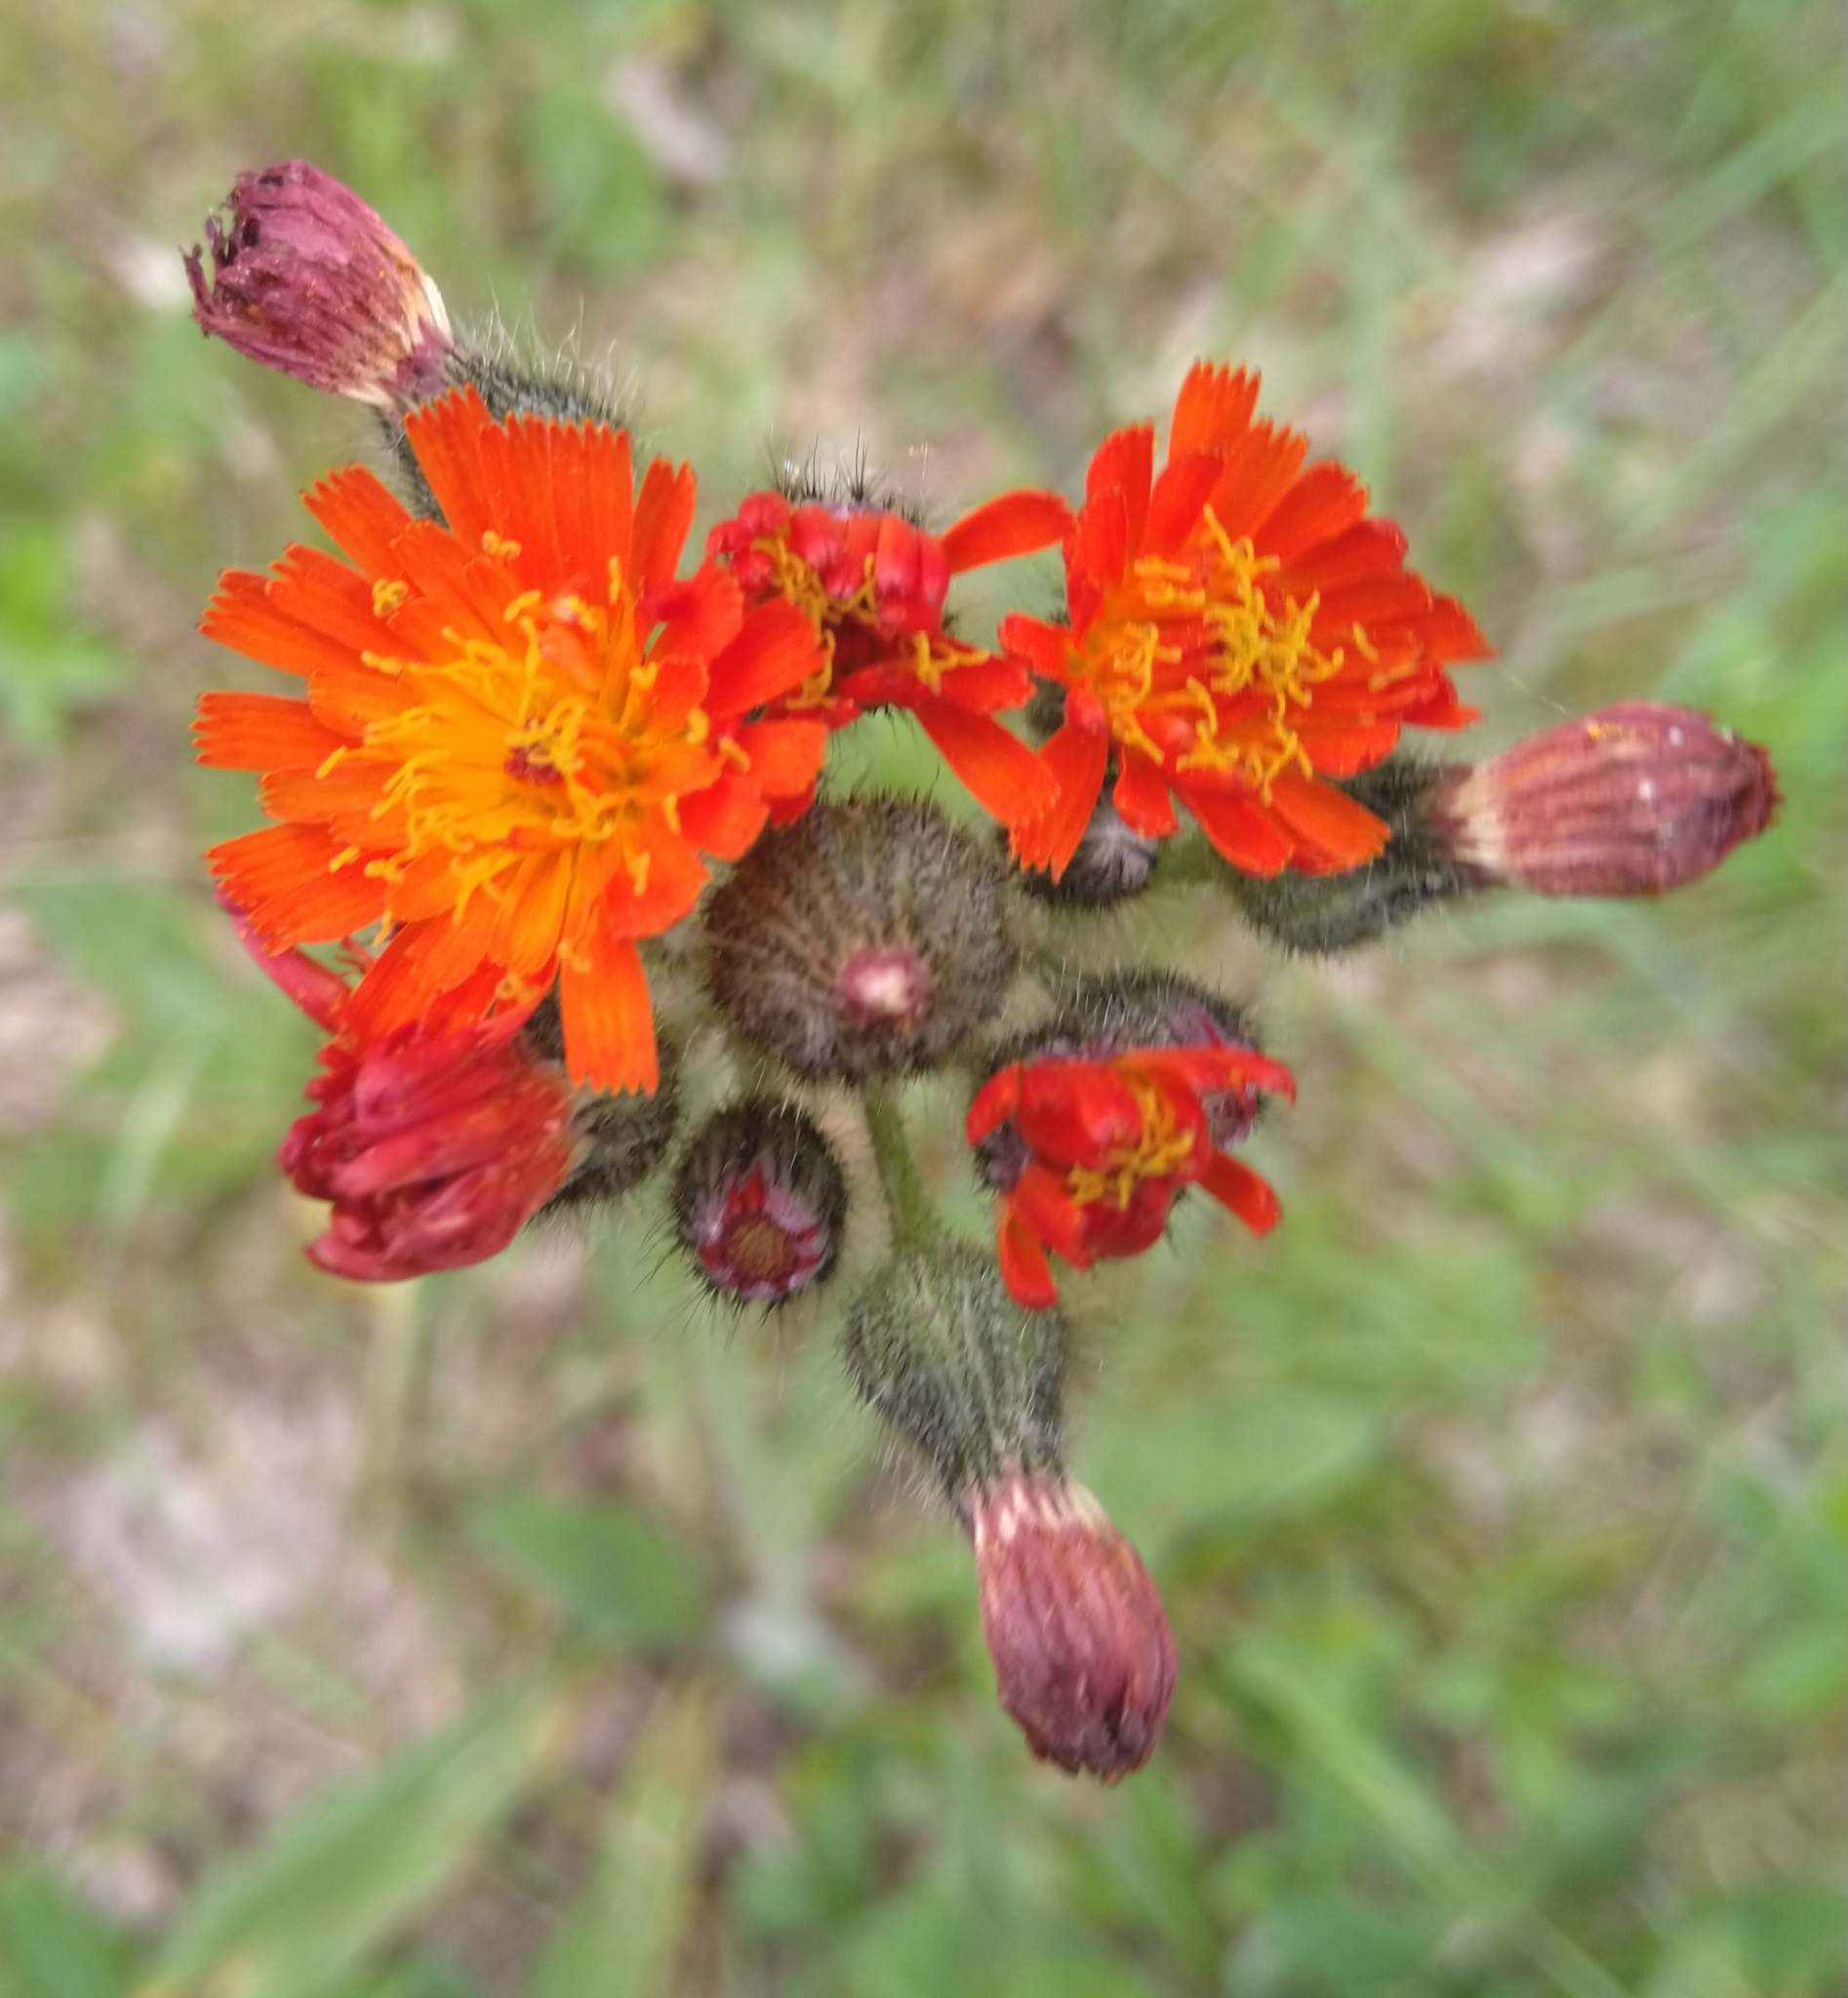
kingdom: Plantae
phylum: Tracheophyta
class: Magnoliopsida
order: Asterales
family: Asteraceae
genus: Pilosella
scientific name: Pilosella aurantiaca
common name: Fox-and-cubs
